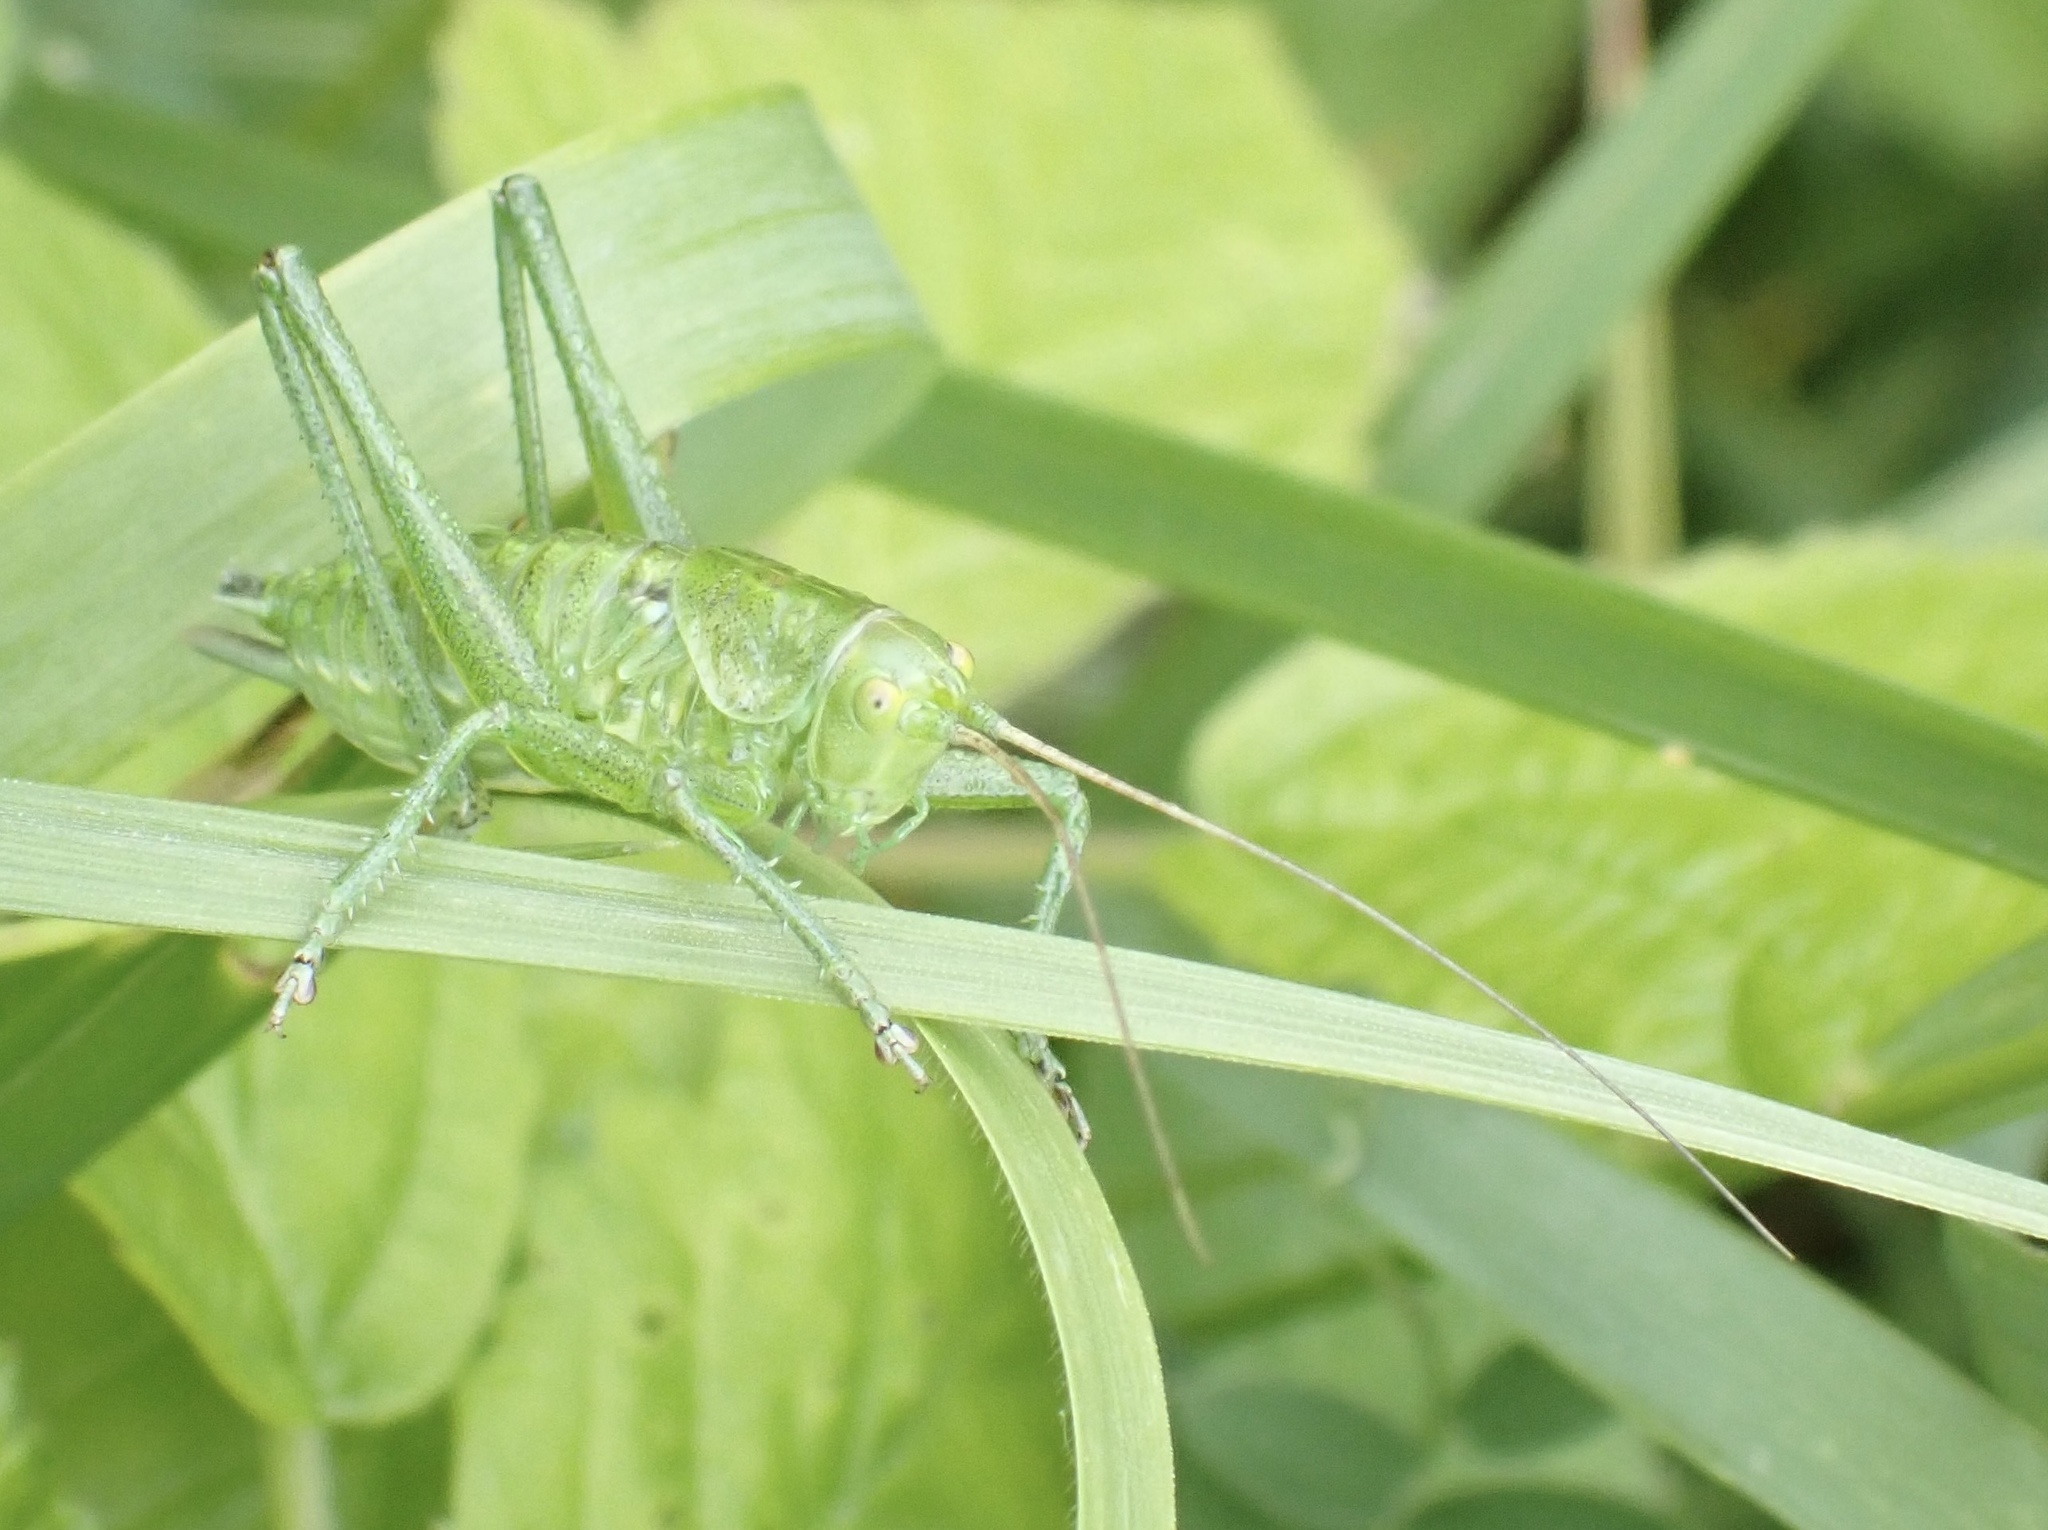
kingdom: Animalia
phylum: Arthropoda
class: Insecta
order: Orthoptera
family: Tettigoniidae
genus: Tettigonia
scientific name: Tettigonia viridissima
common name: Great green bush-cricket
